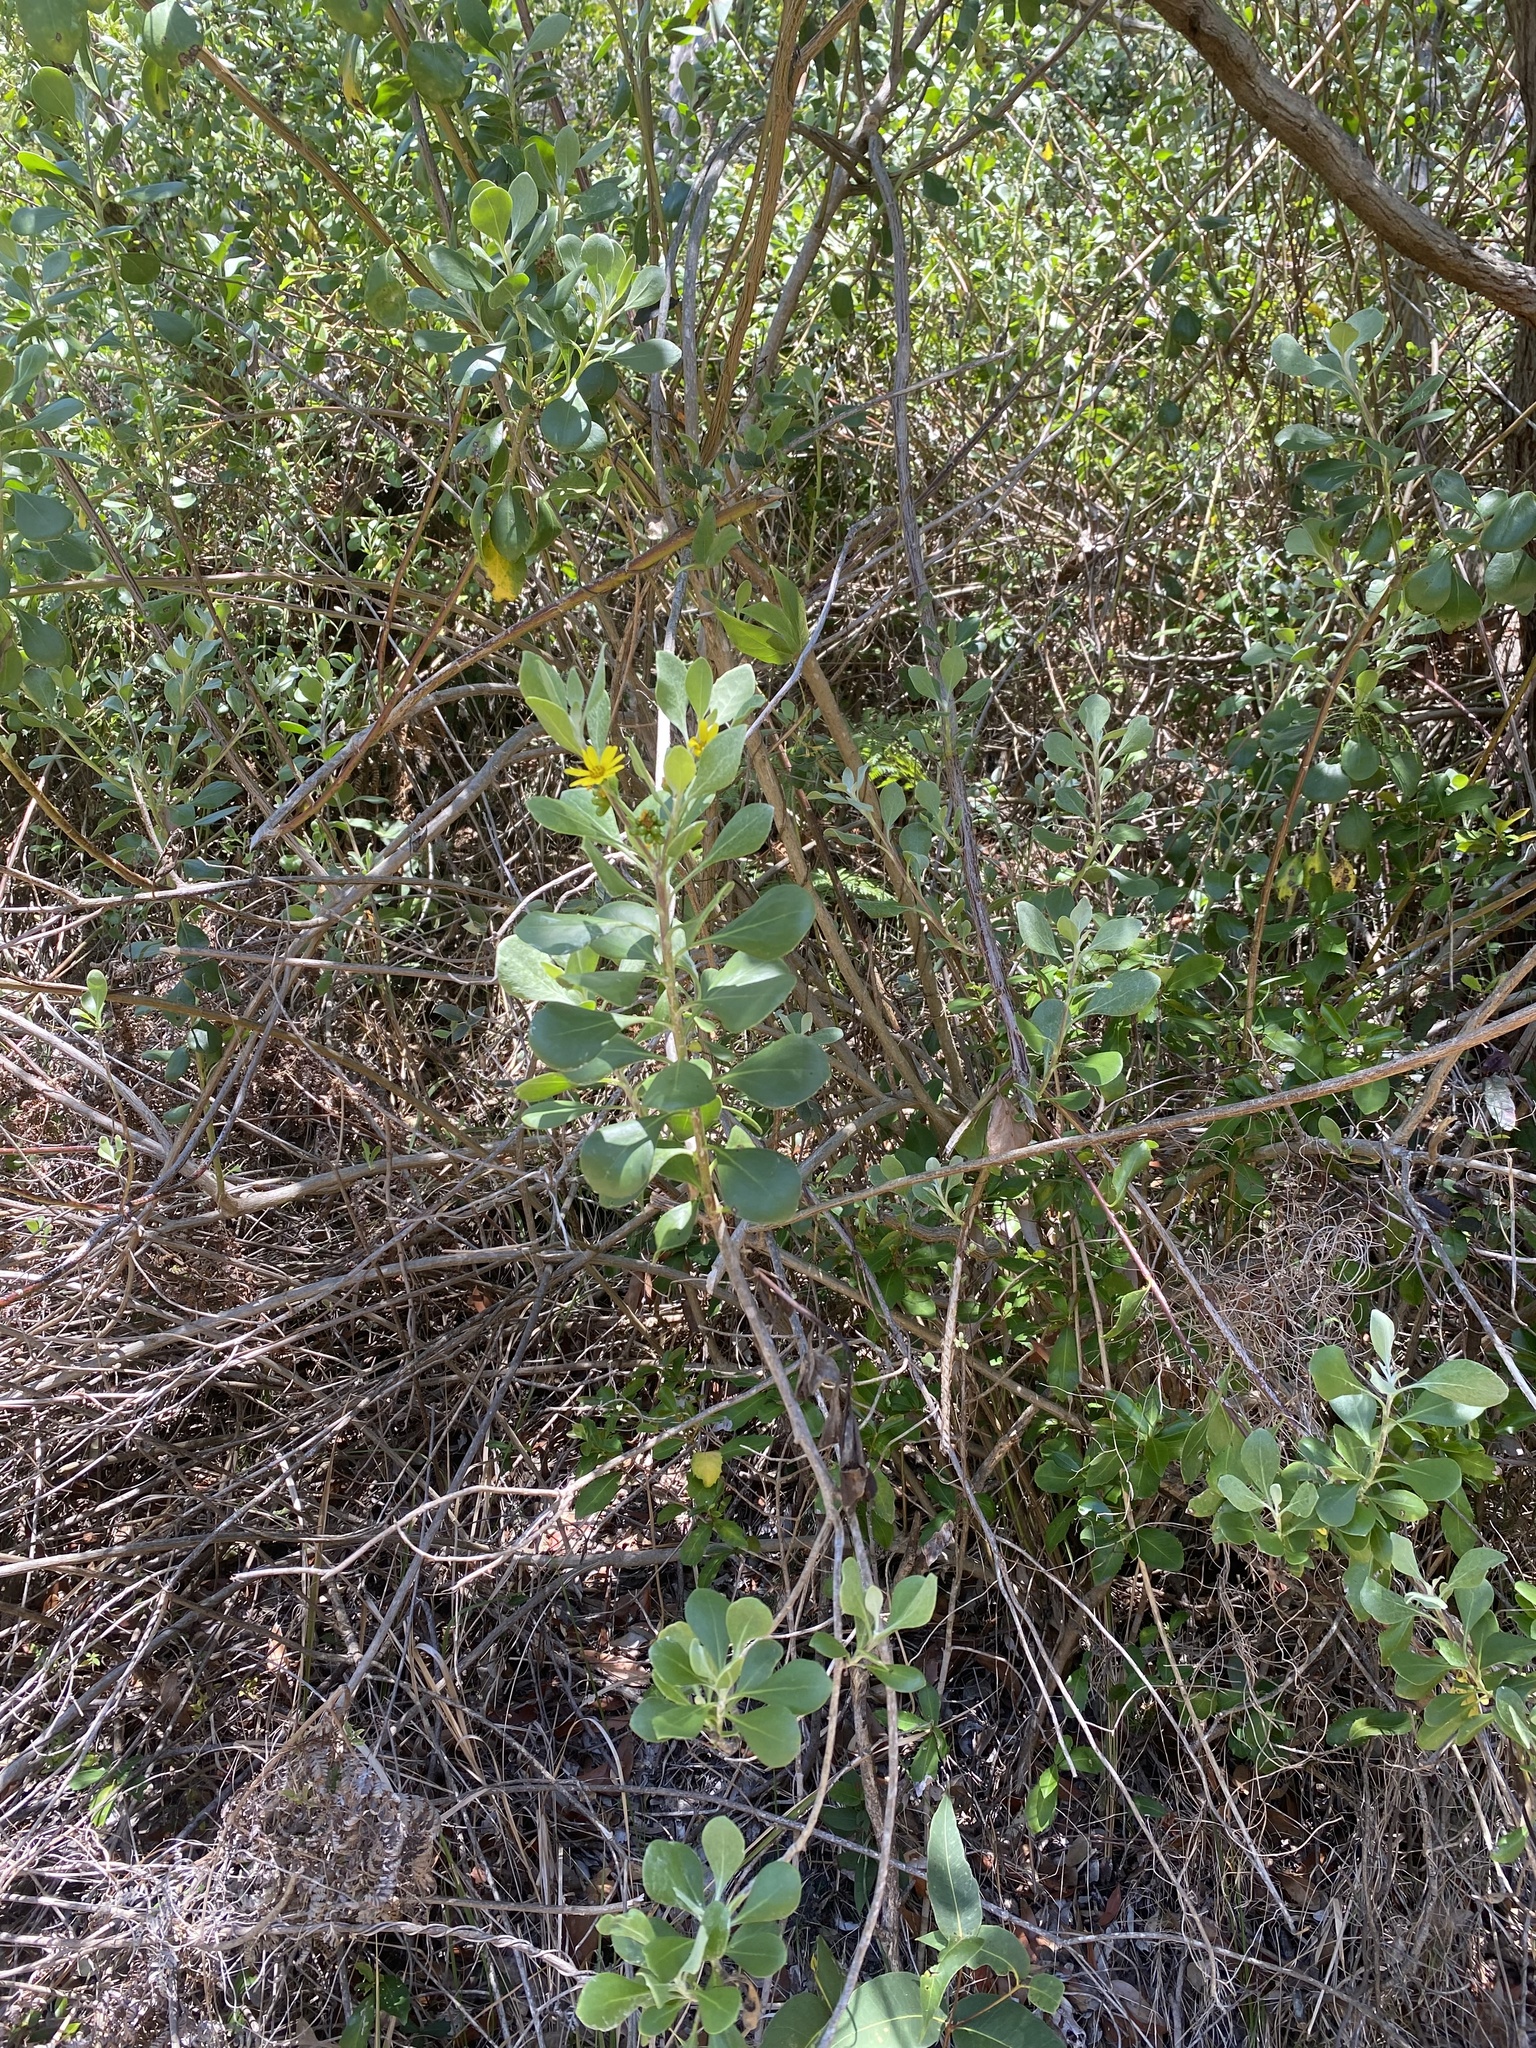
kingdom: Plantae
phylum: Tracheophyta
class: Magnoliopsida
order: Asterales
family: Asteraceae
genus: Osteospermum
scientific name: Osteospermum moniliferum
